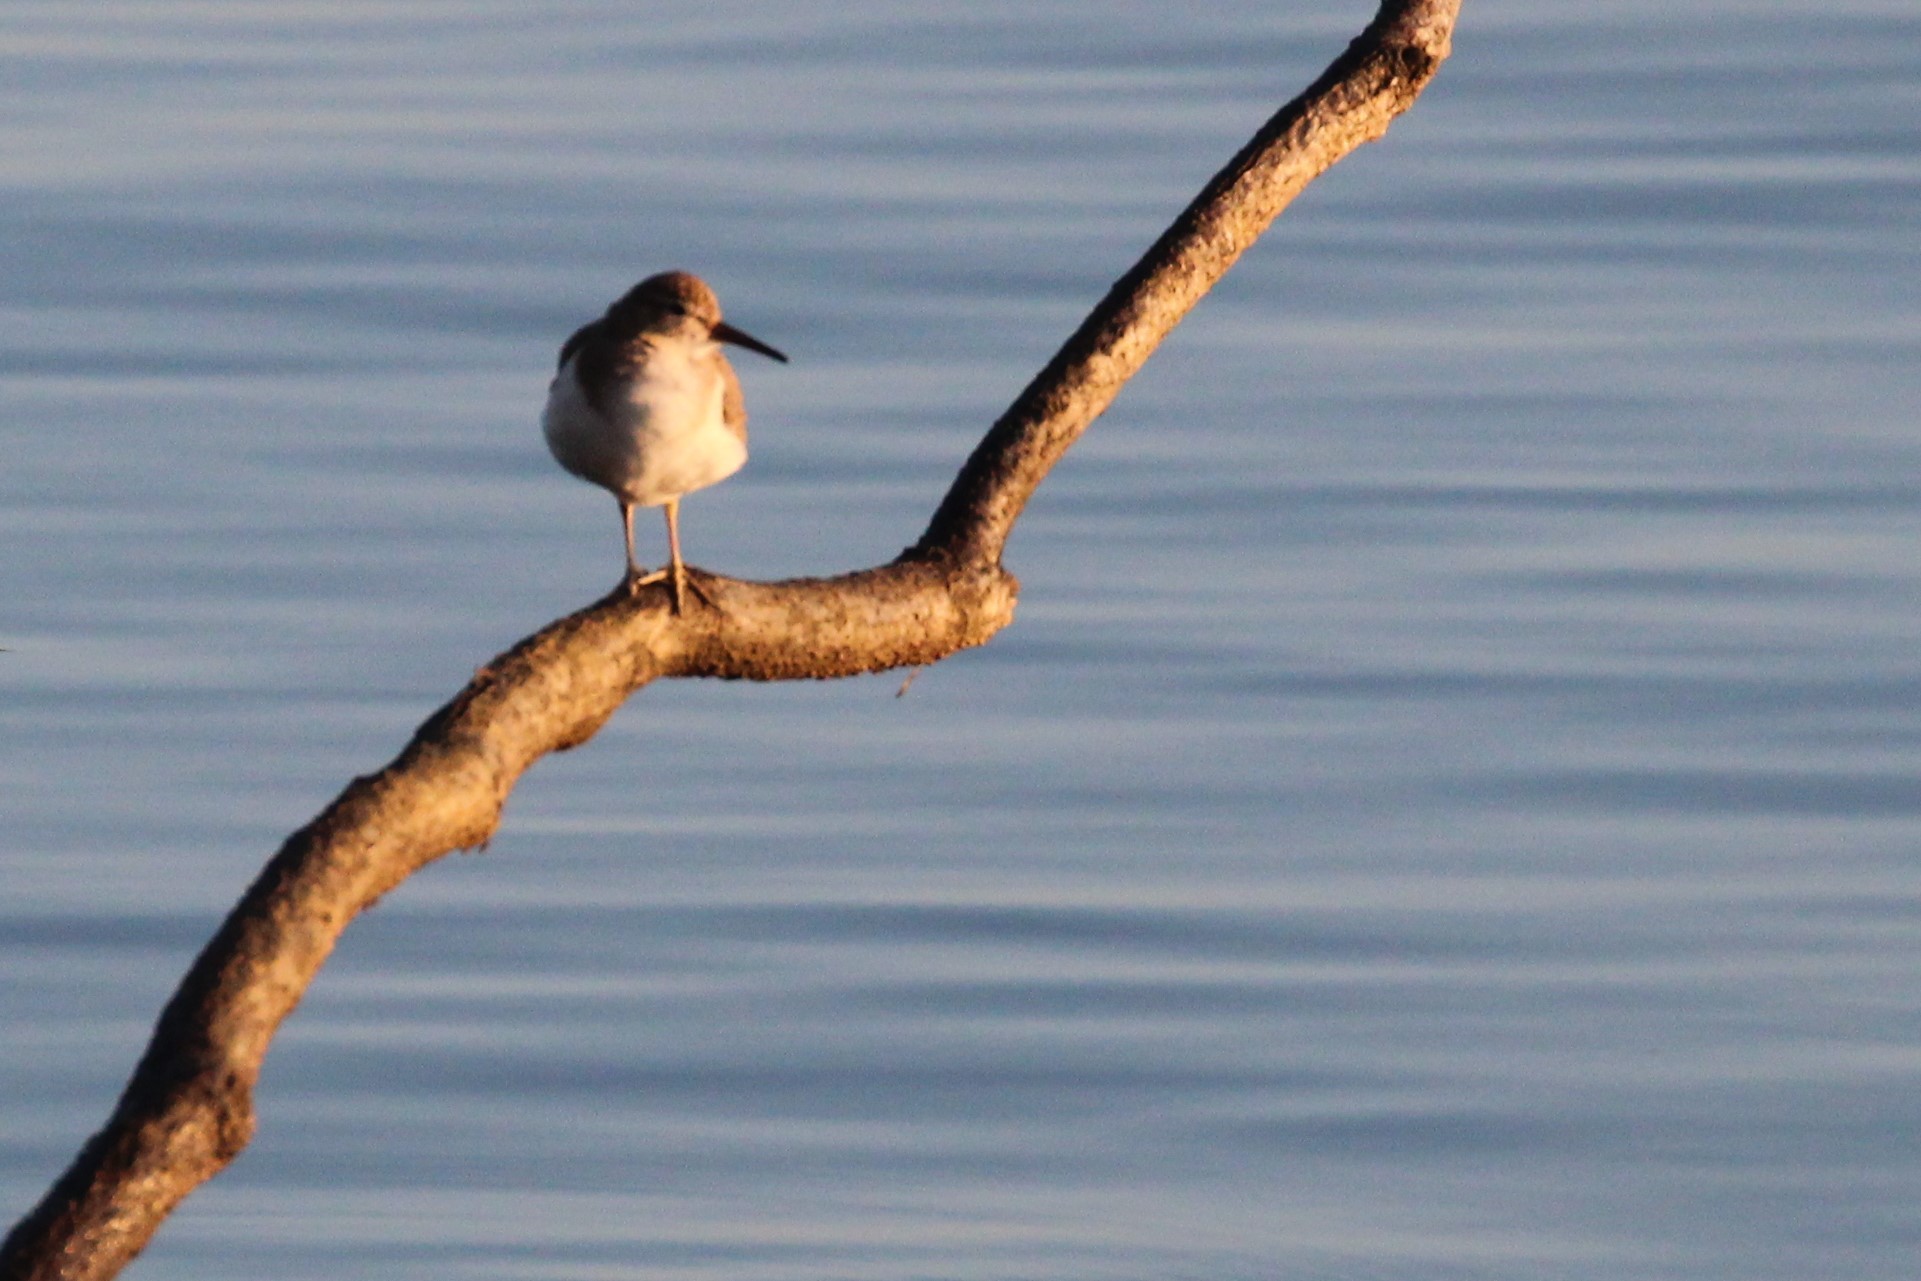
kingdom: Animalia
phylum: Chordata
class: Aves
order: Charadriiformes
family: Scolopacidae
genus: Actitis
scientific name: Actitis macularius
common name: Spotted sandpiper
